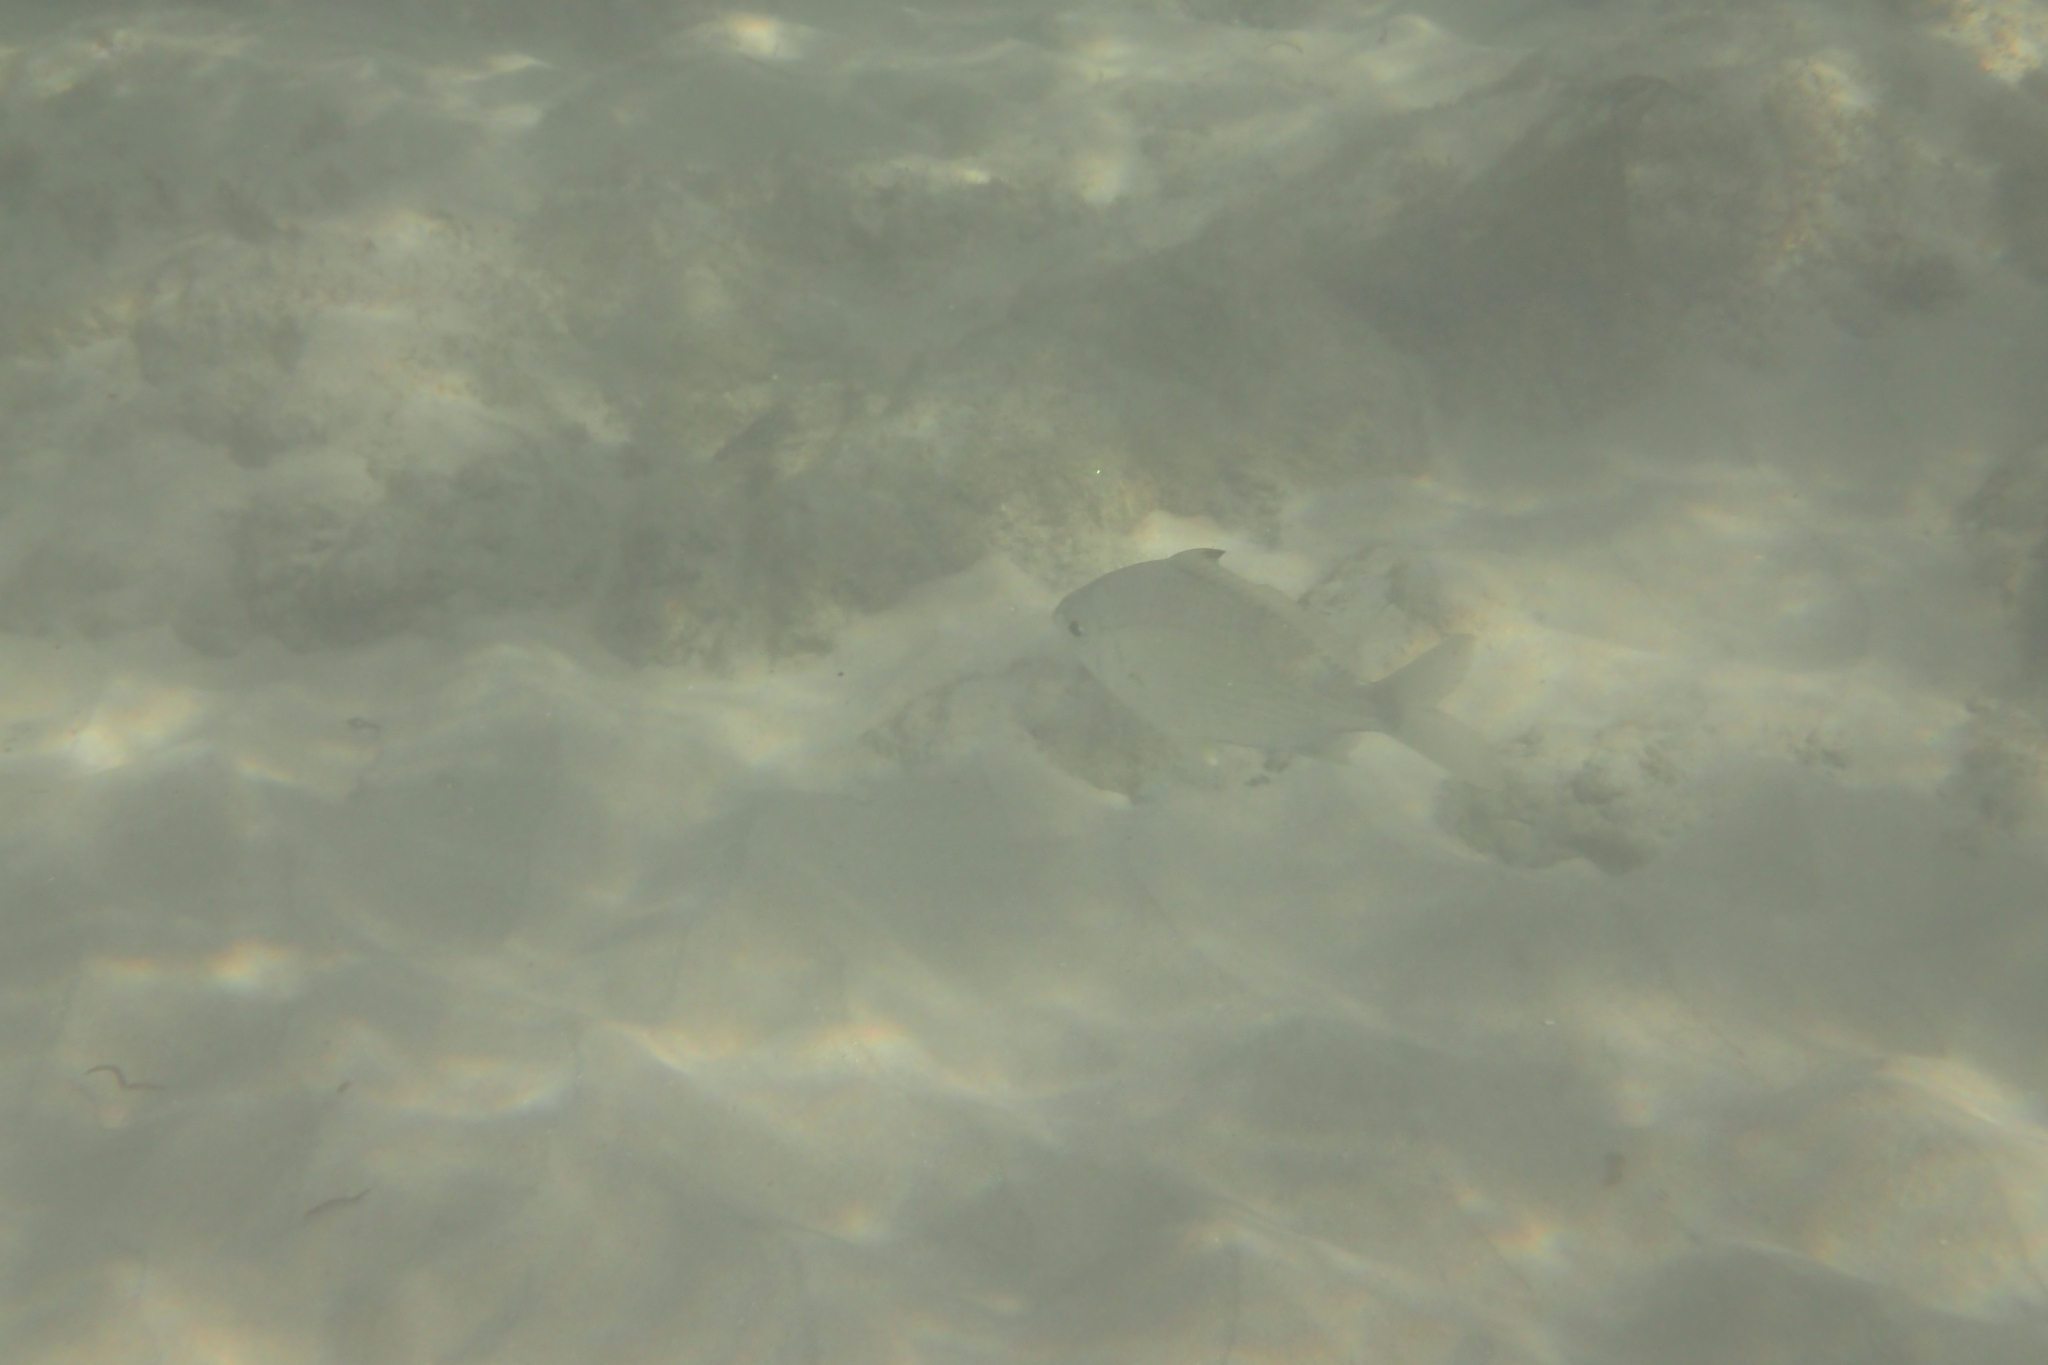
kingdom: Animalia
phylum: Chordata
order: Perciformes
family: Gerreidae
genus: Gerres
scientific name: Gerres subfasciatus
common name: Common silver belly
